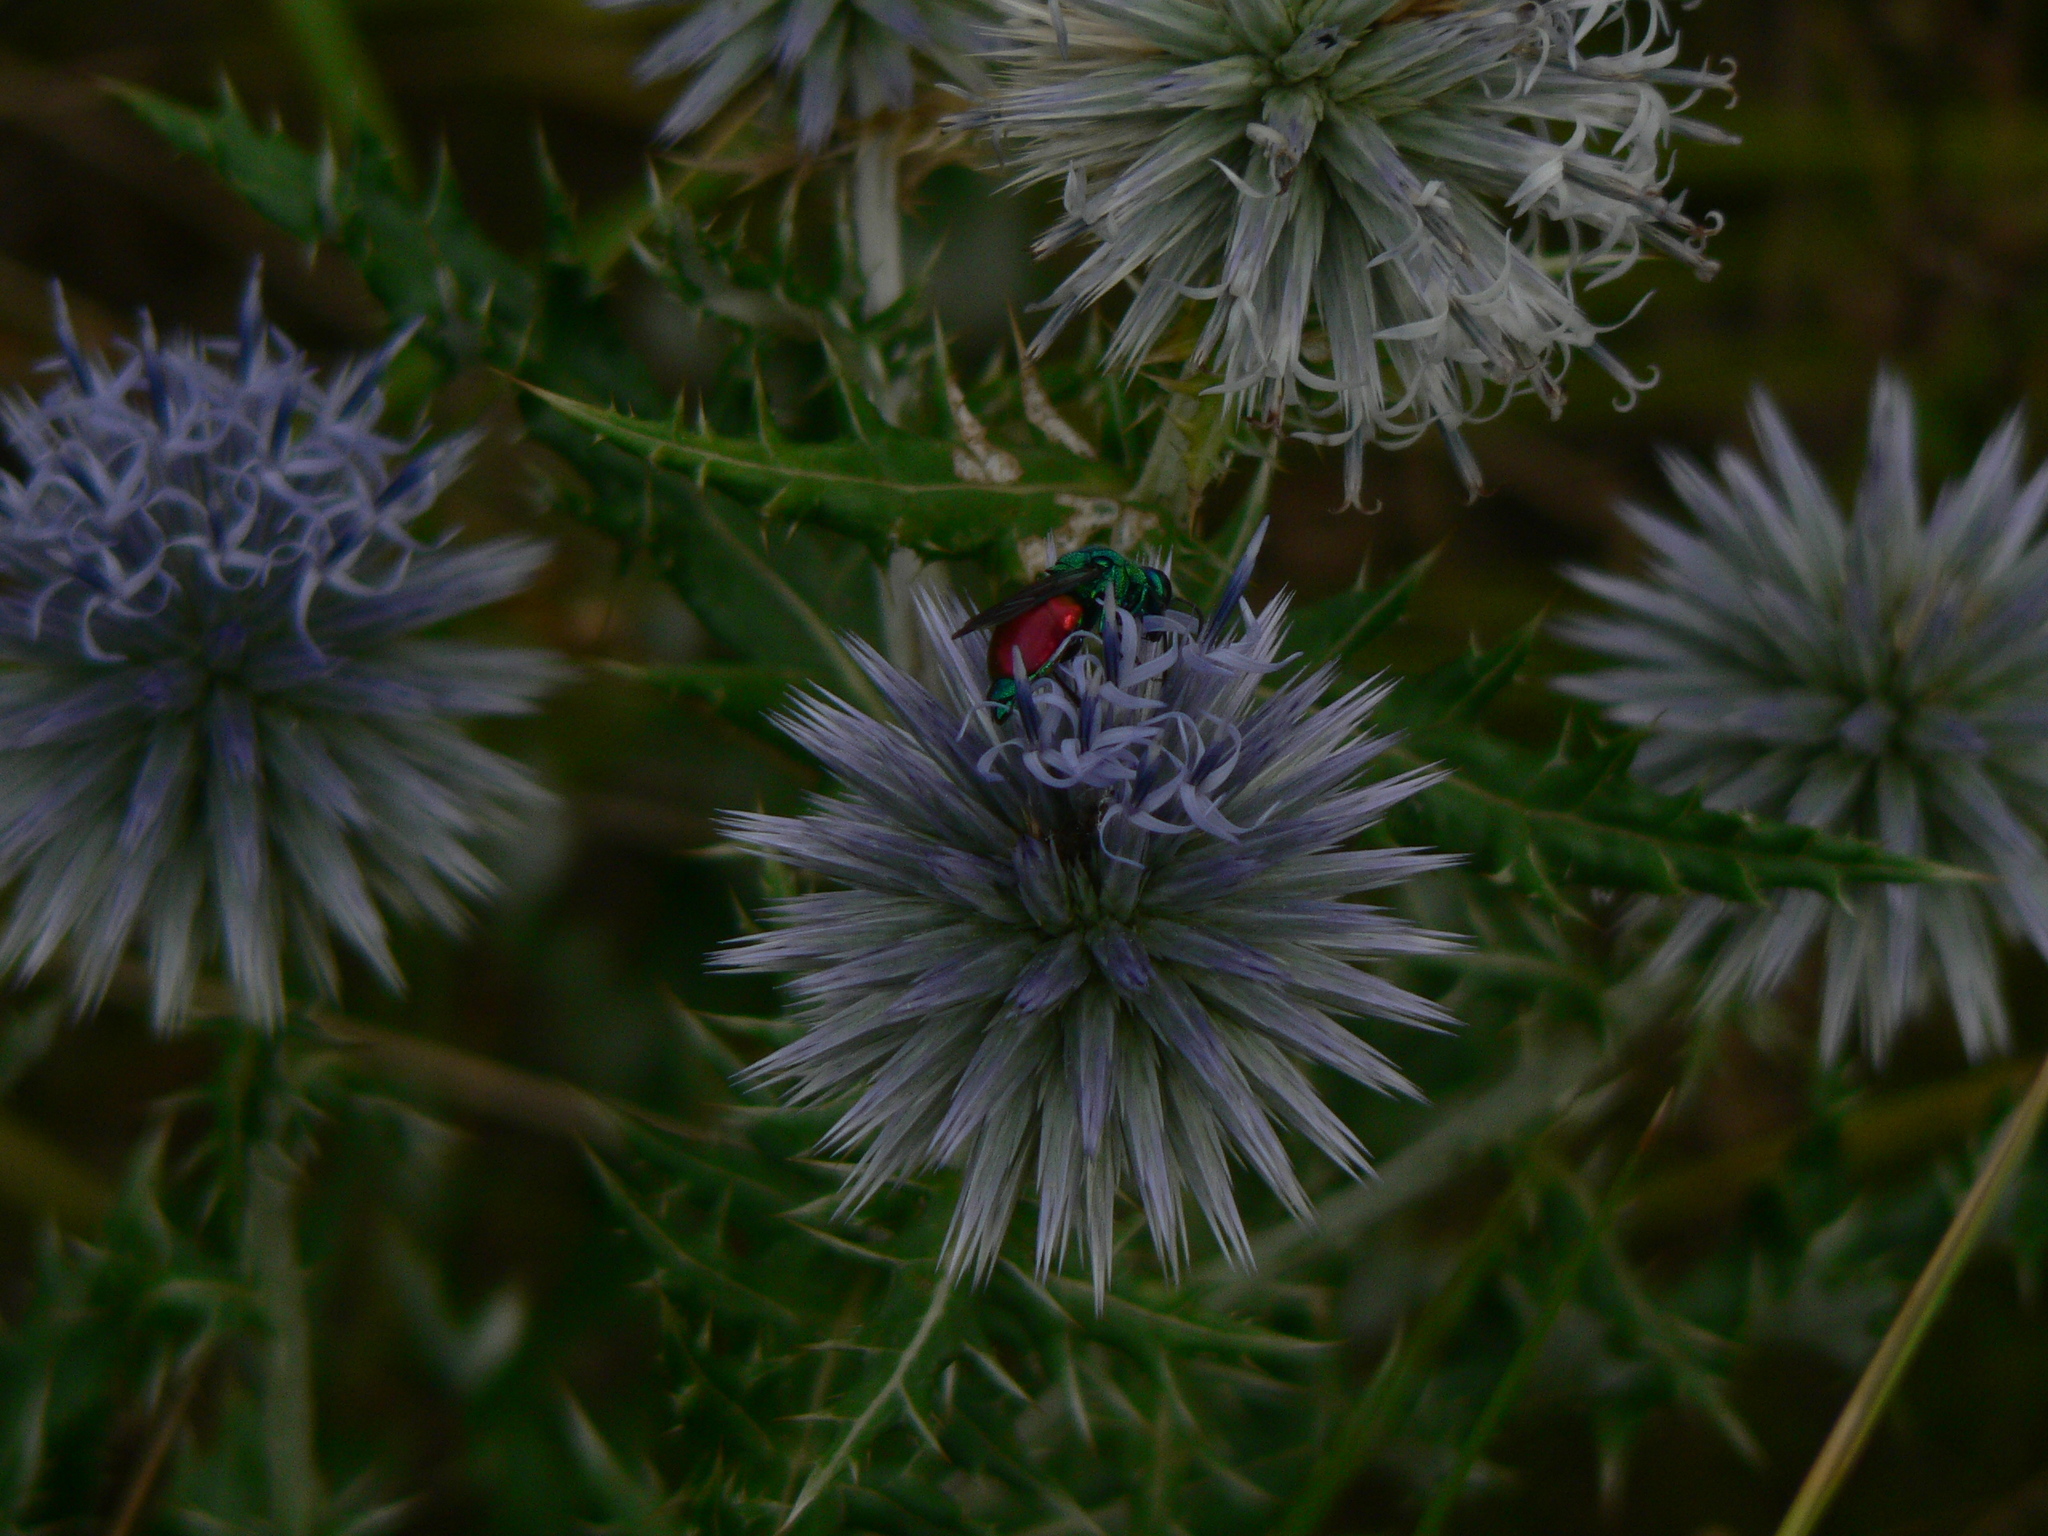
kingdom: Animalia
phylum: Arthropoda
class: Insecta
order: Hymenoptera
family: Chrysididae
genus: Stilbum
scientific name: Stilbum calens
